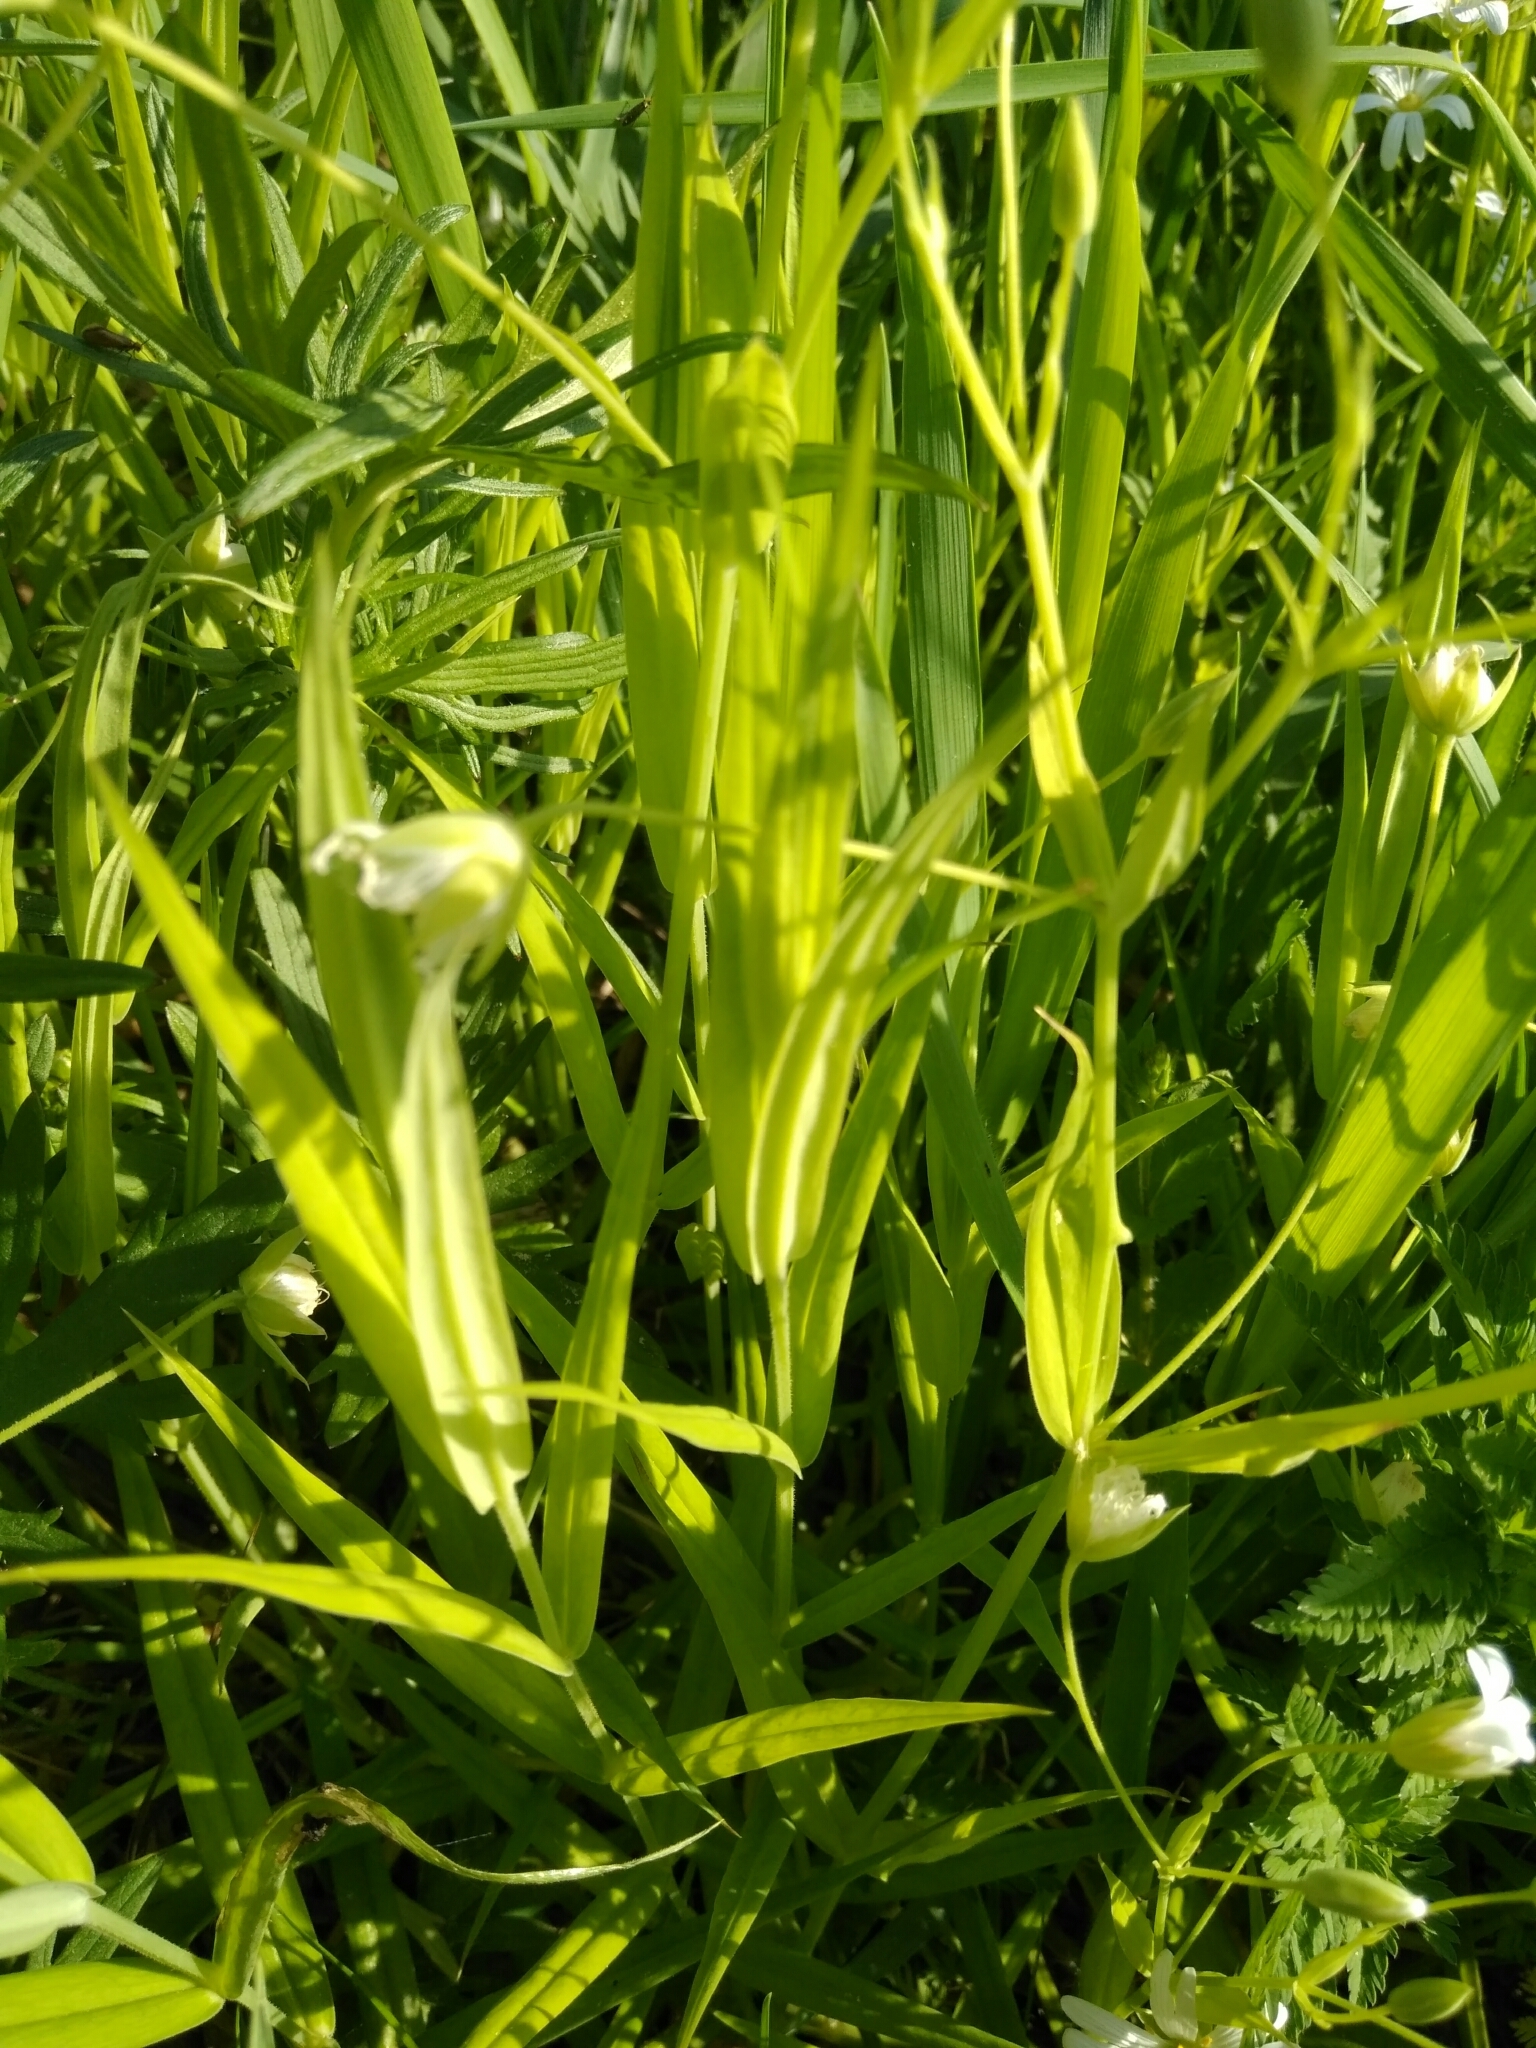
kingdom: Plantae
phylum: Tracheophyta
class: Magnoliopsida
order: Caryophyllales
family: Caryophyllaceae
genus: Rabelera
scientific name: Rabelera holostea
